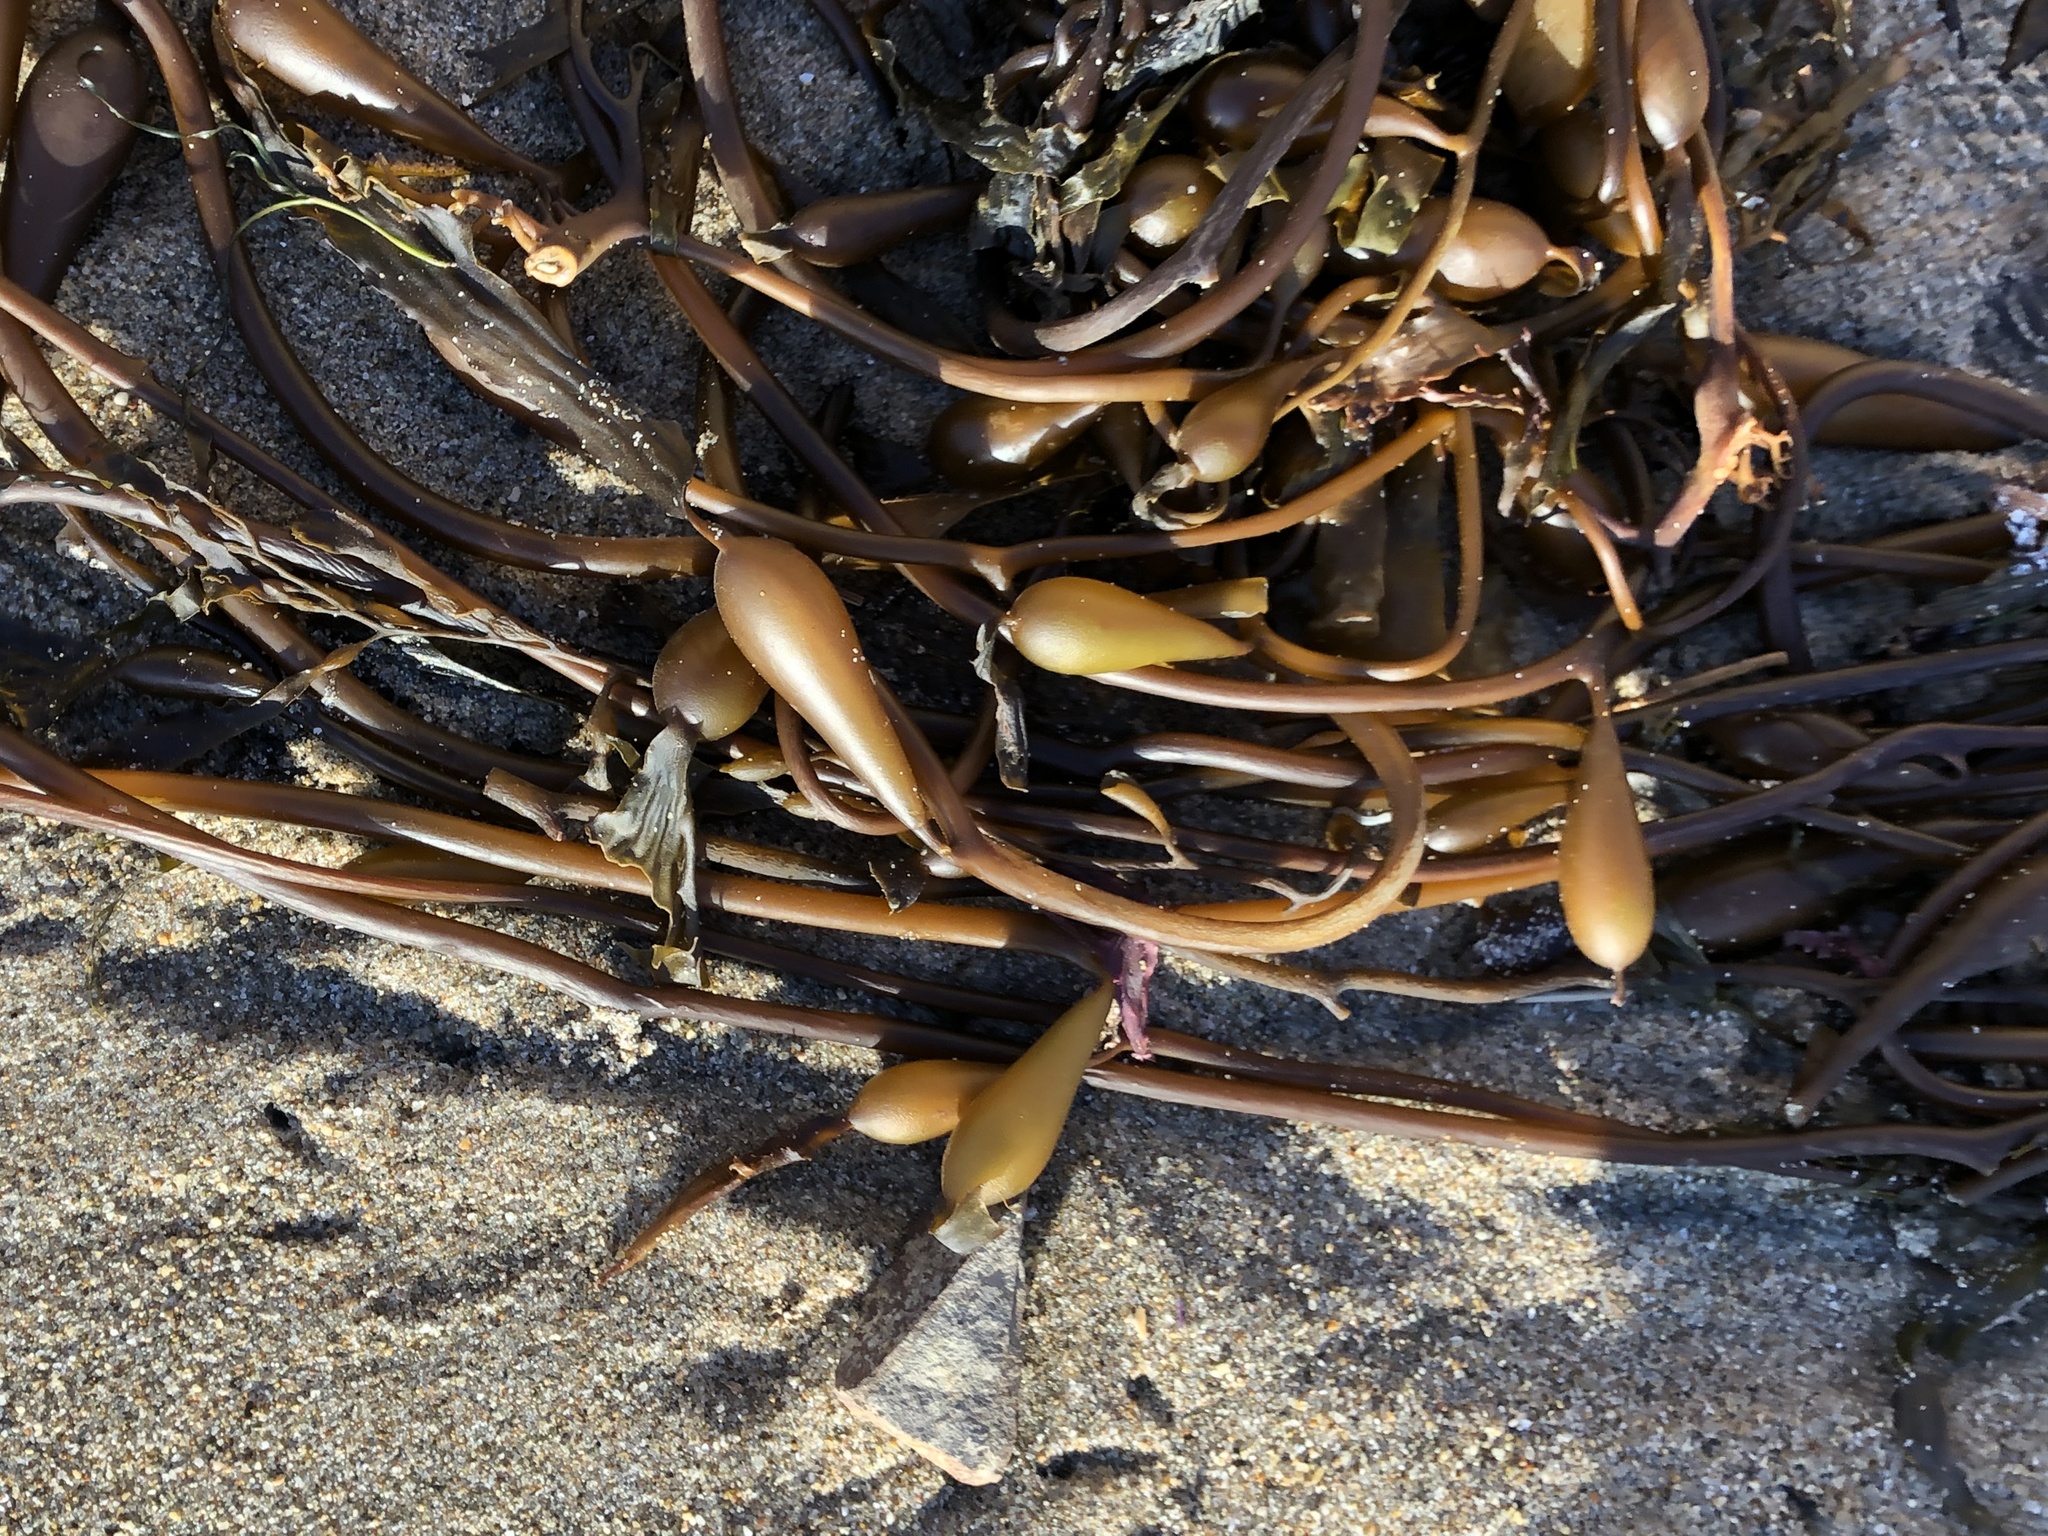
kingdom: Chromista
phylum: Ochrophyta
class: Phaeophyceae
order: Laminariales
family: Laminariaceae
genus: Macrocystis
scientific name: Macrocystis pyrifera
